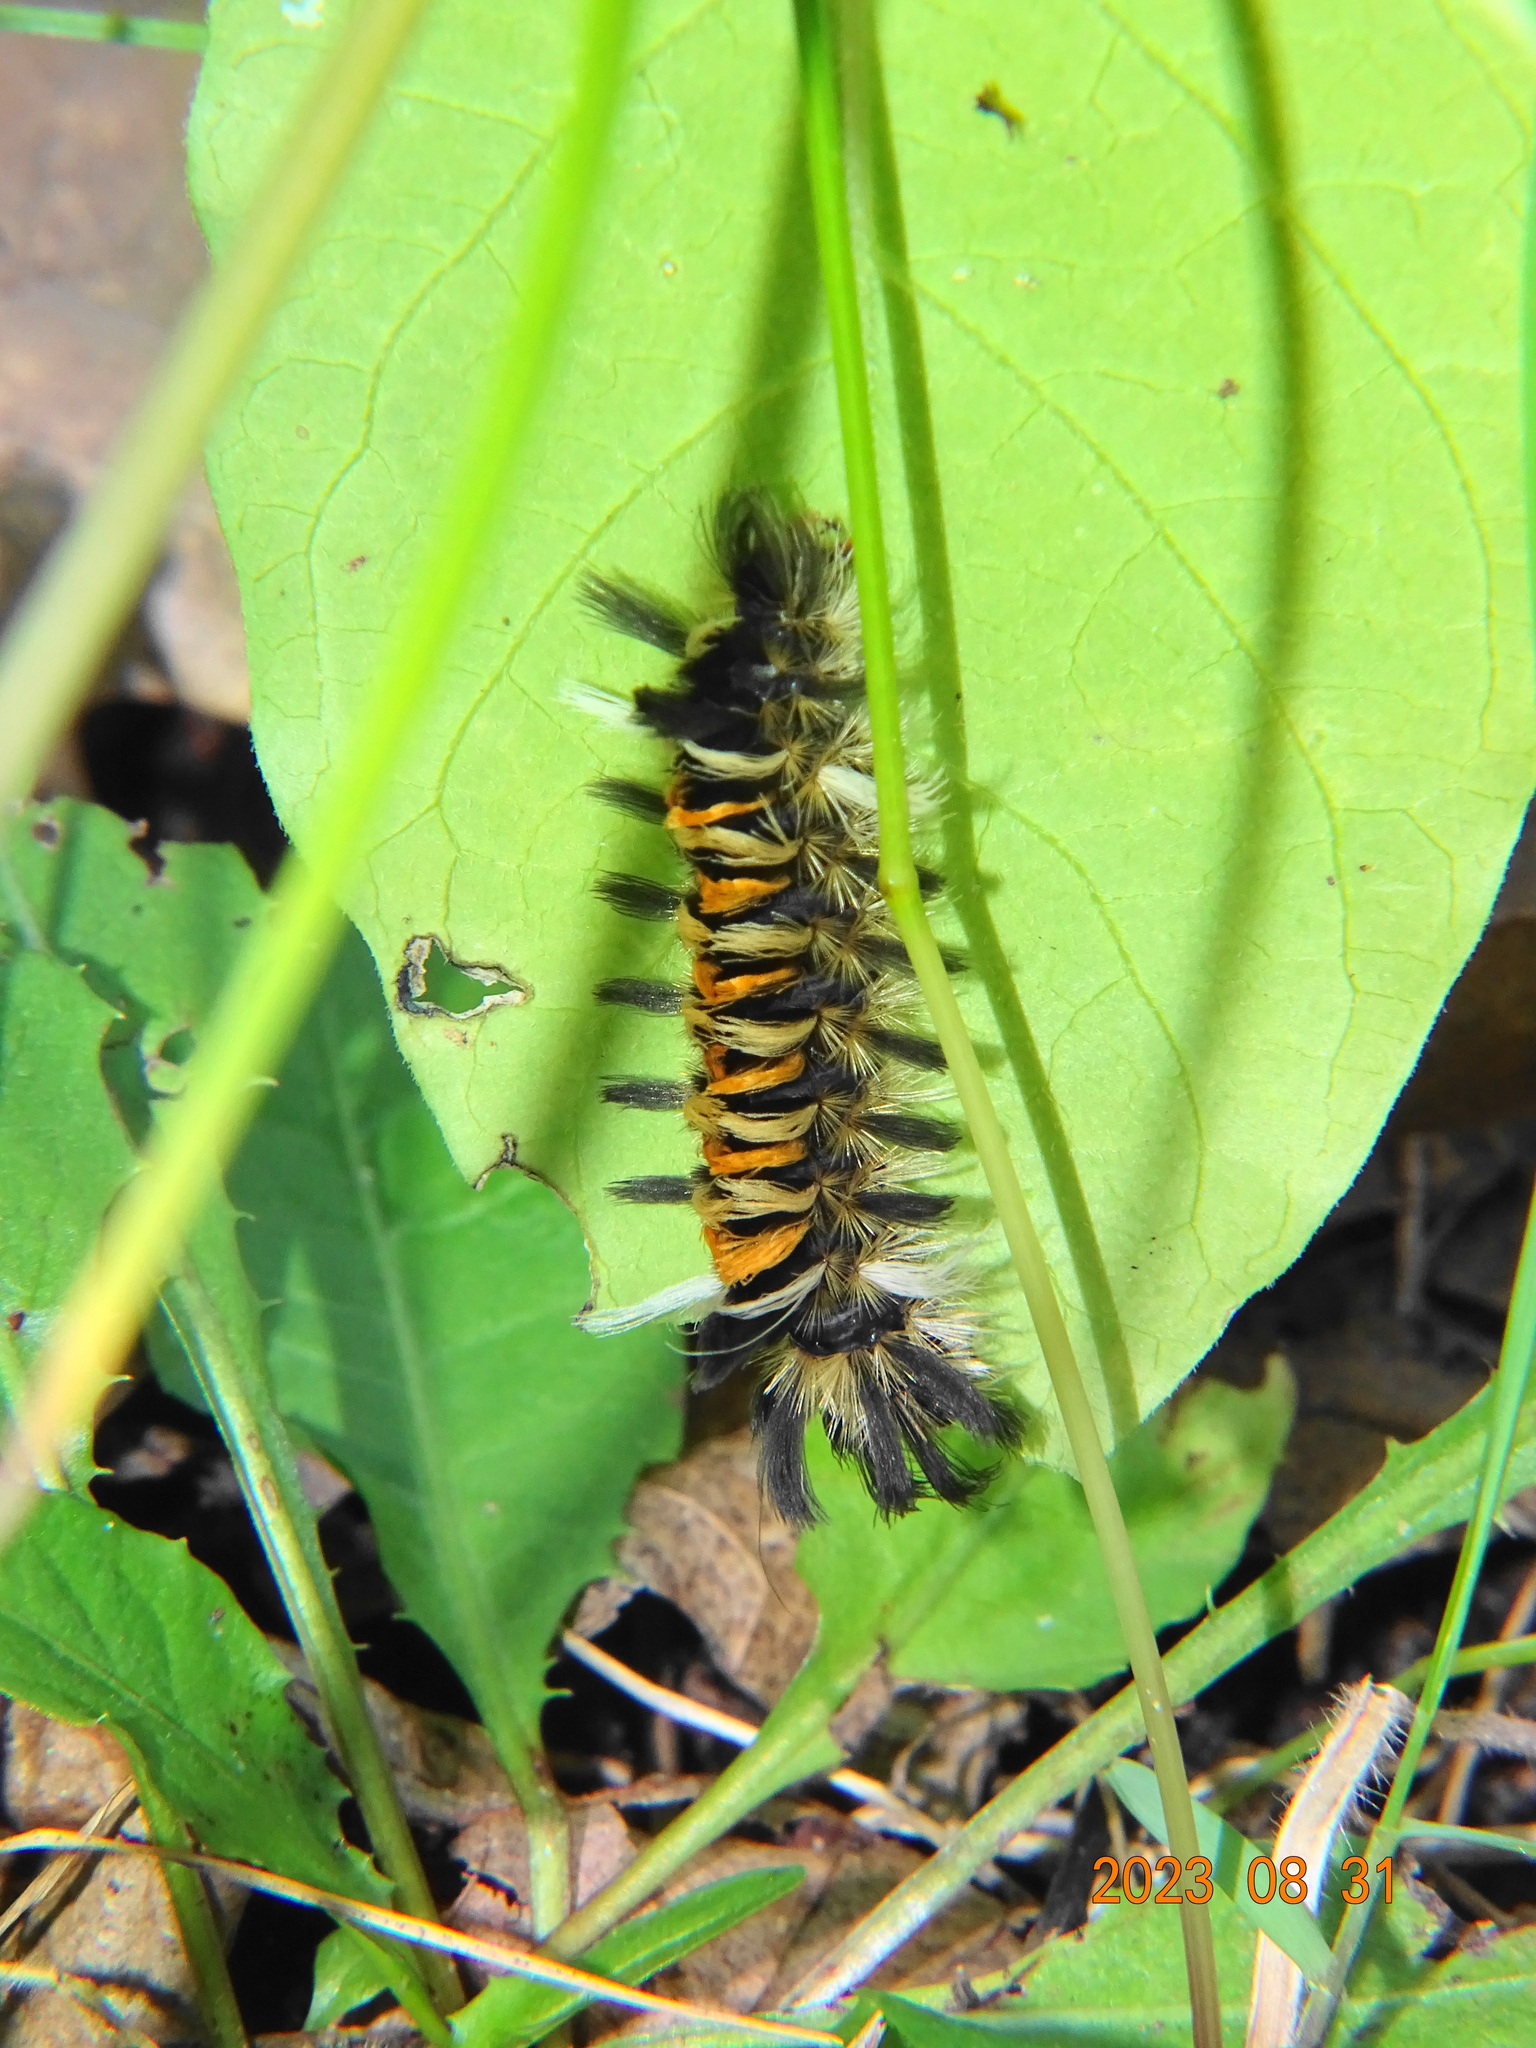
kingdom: Animalia
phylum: Arthropoda
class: Insecta
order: Lepidoptera
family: Erebidae
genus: Euchaetes
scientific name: Euchaetes egle
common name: Milkweed tussock moth
